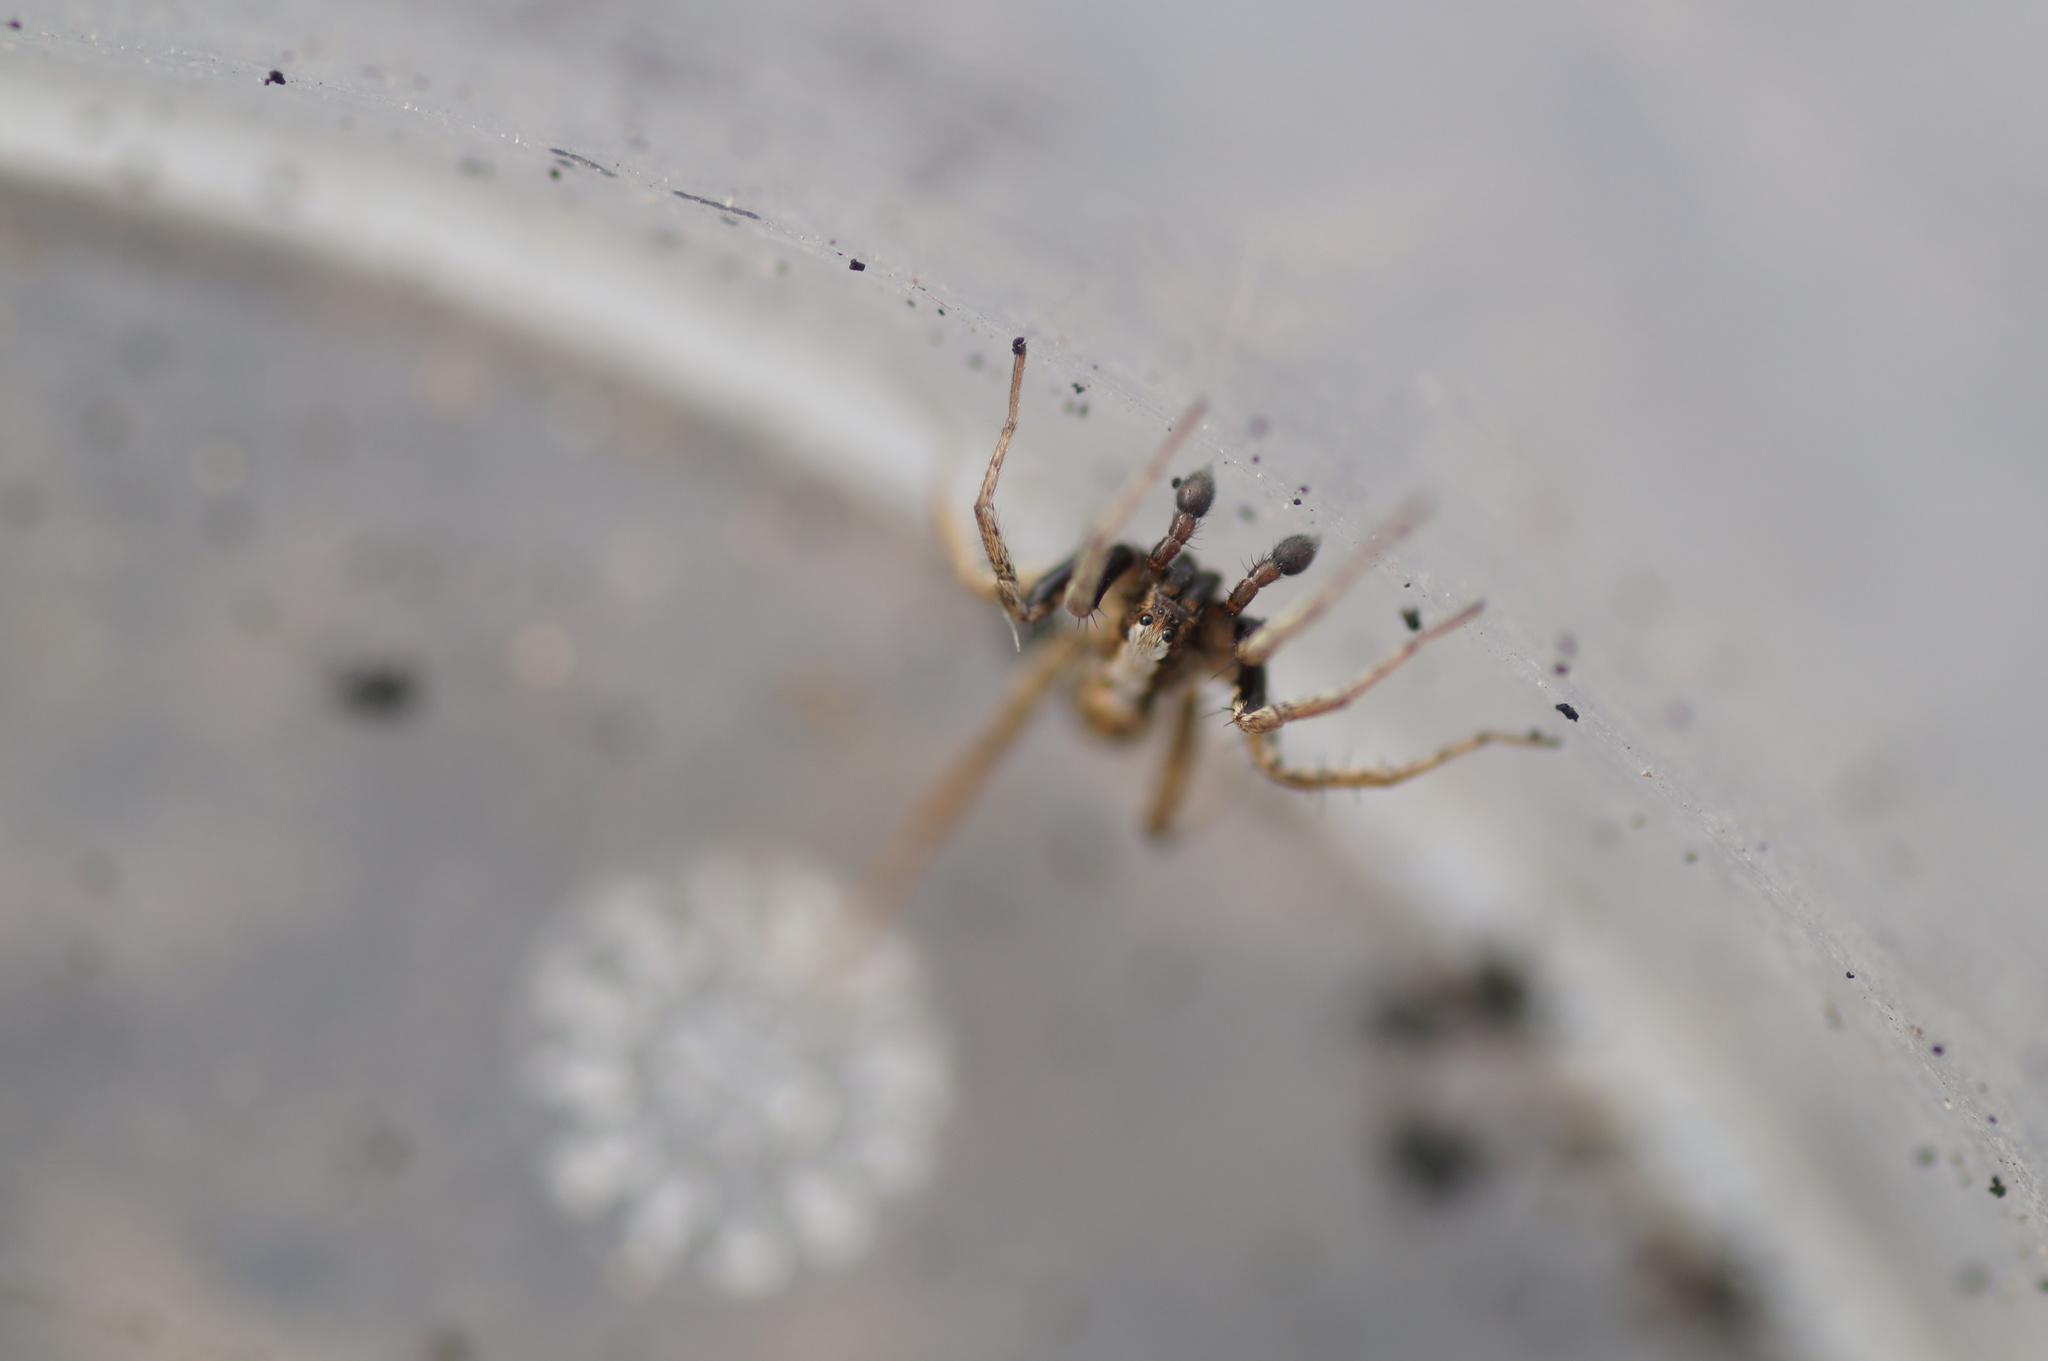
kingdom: Animalia
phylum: Arthropoda
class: Arachnida
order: Araneae
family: Lycosidae
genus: Xerolycosa
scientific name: Xerolycosa miniata
